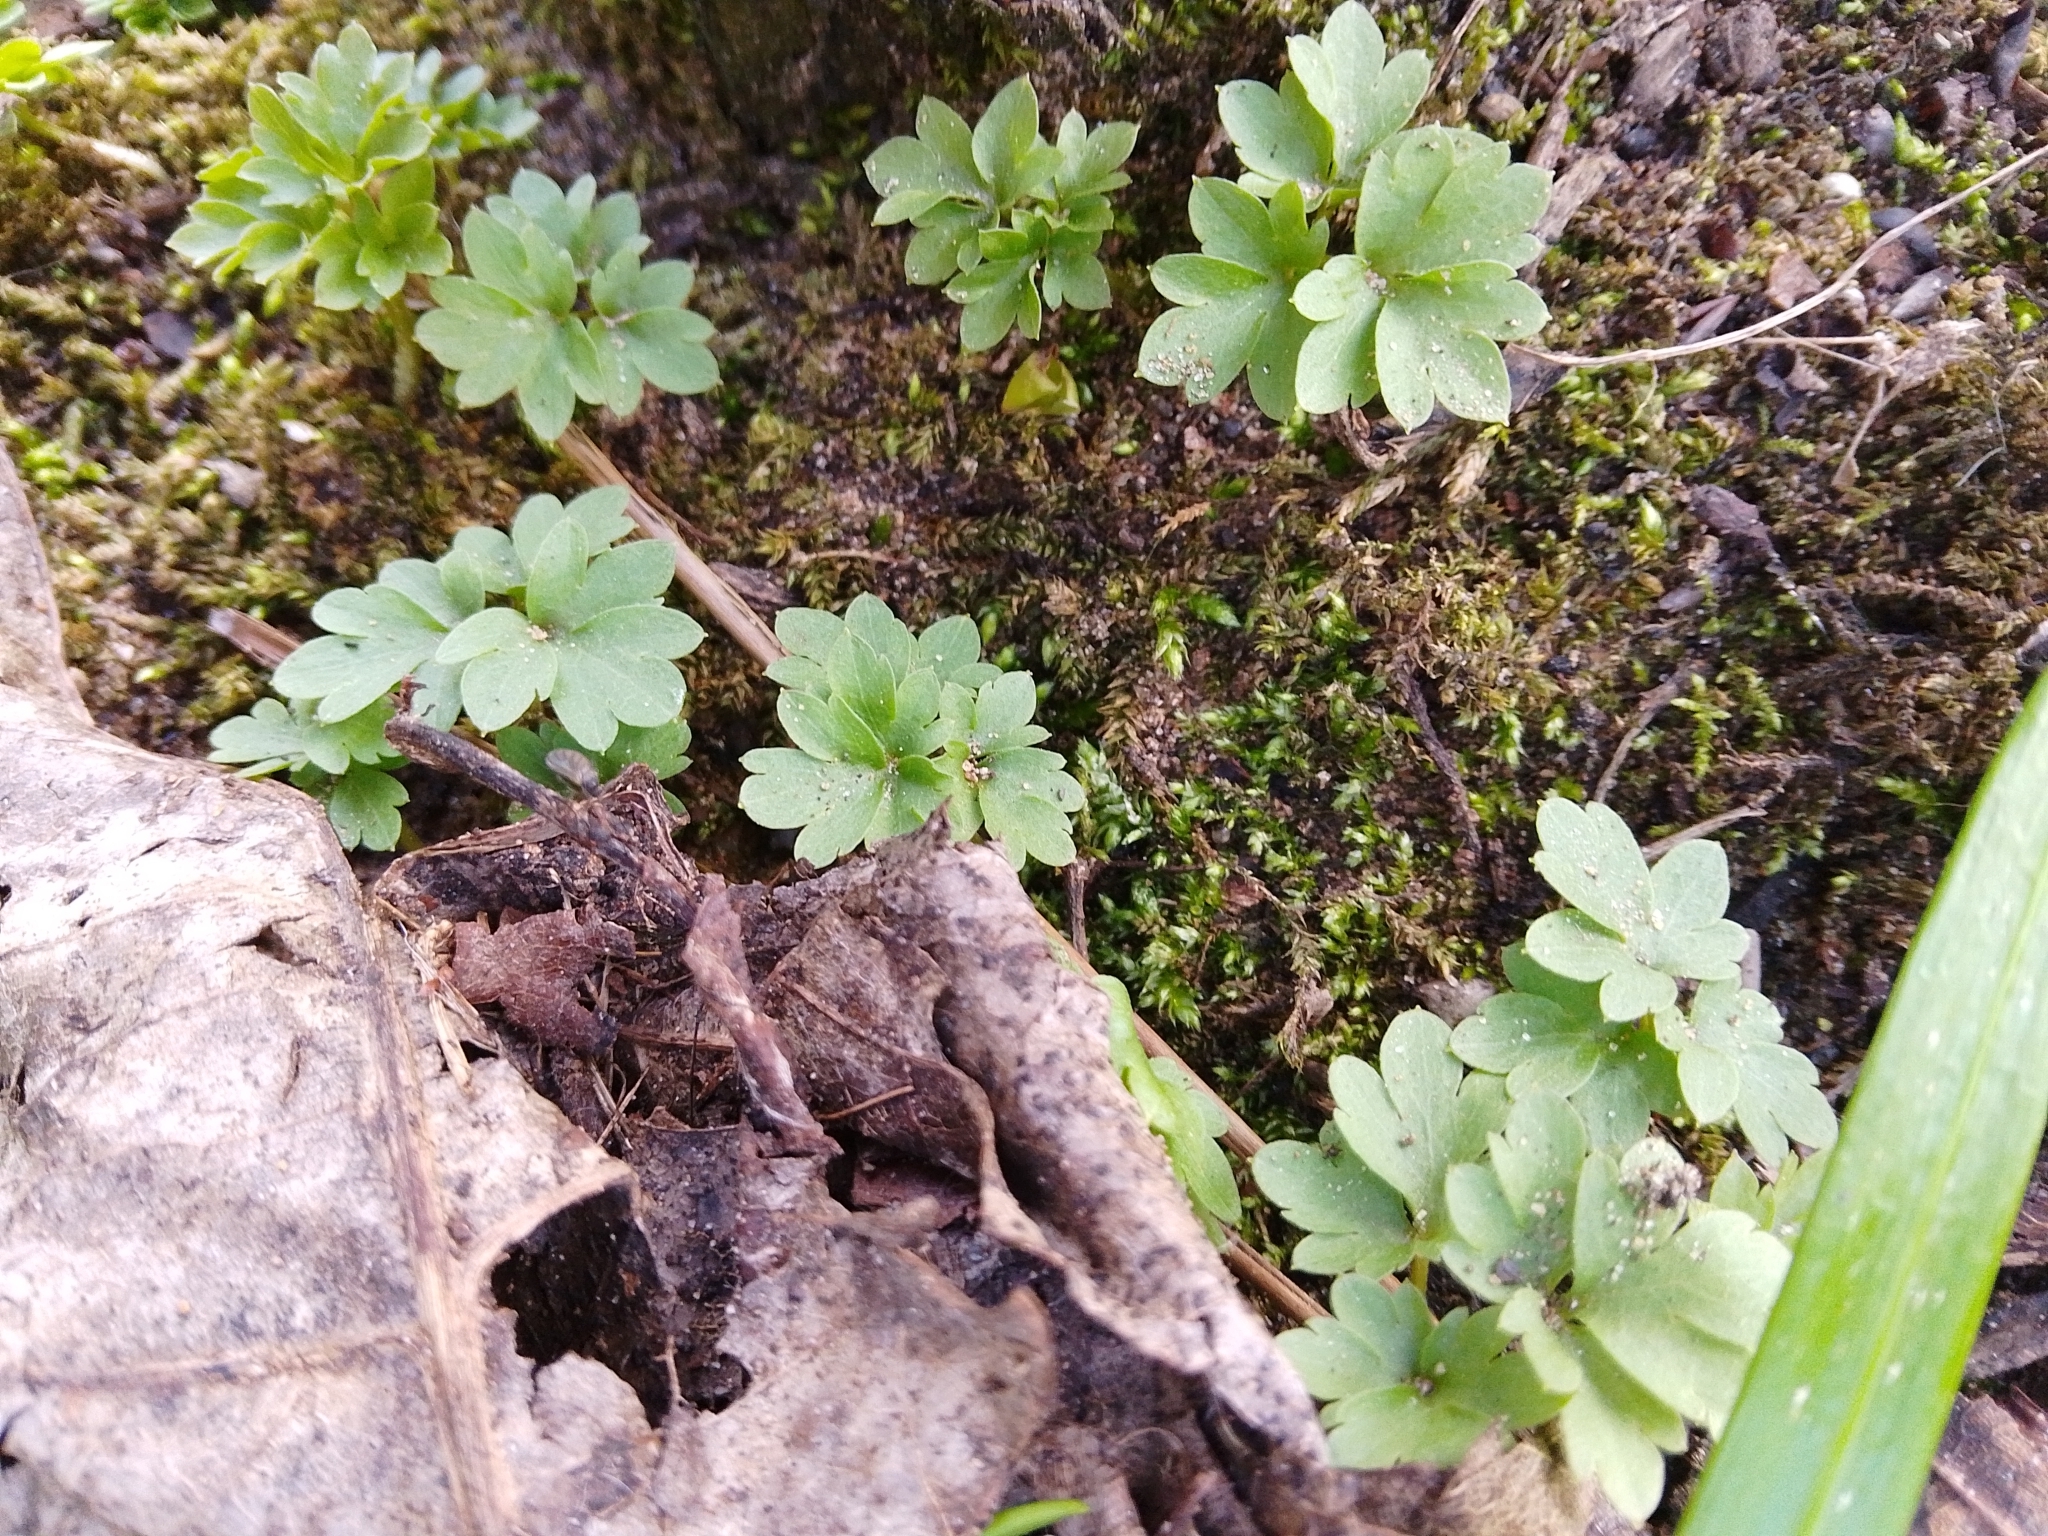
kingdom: Plantae
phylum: Tracheophyta
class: Magnoliopsida
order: Dipsacales
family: Viburnaceae
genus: Adoxa
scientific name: Adoxa moschatellina
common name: Moschatel
